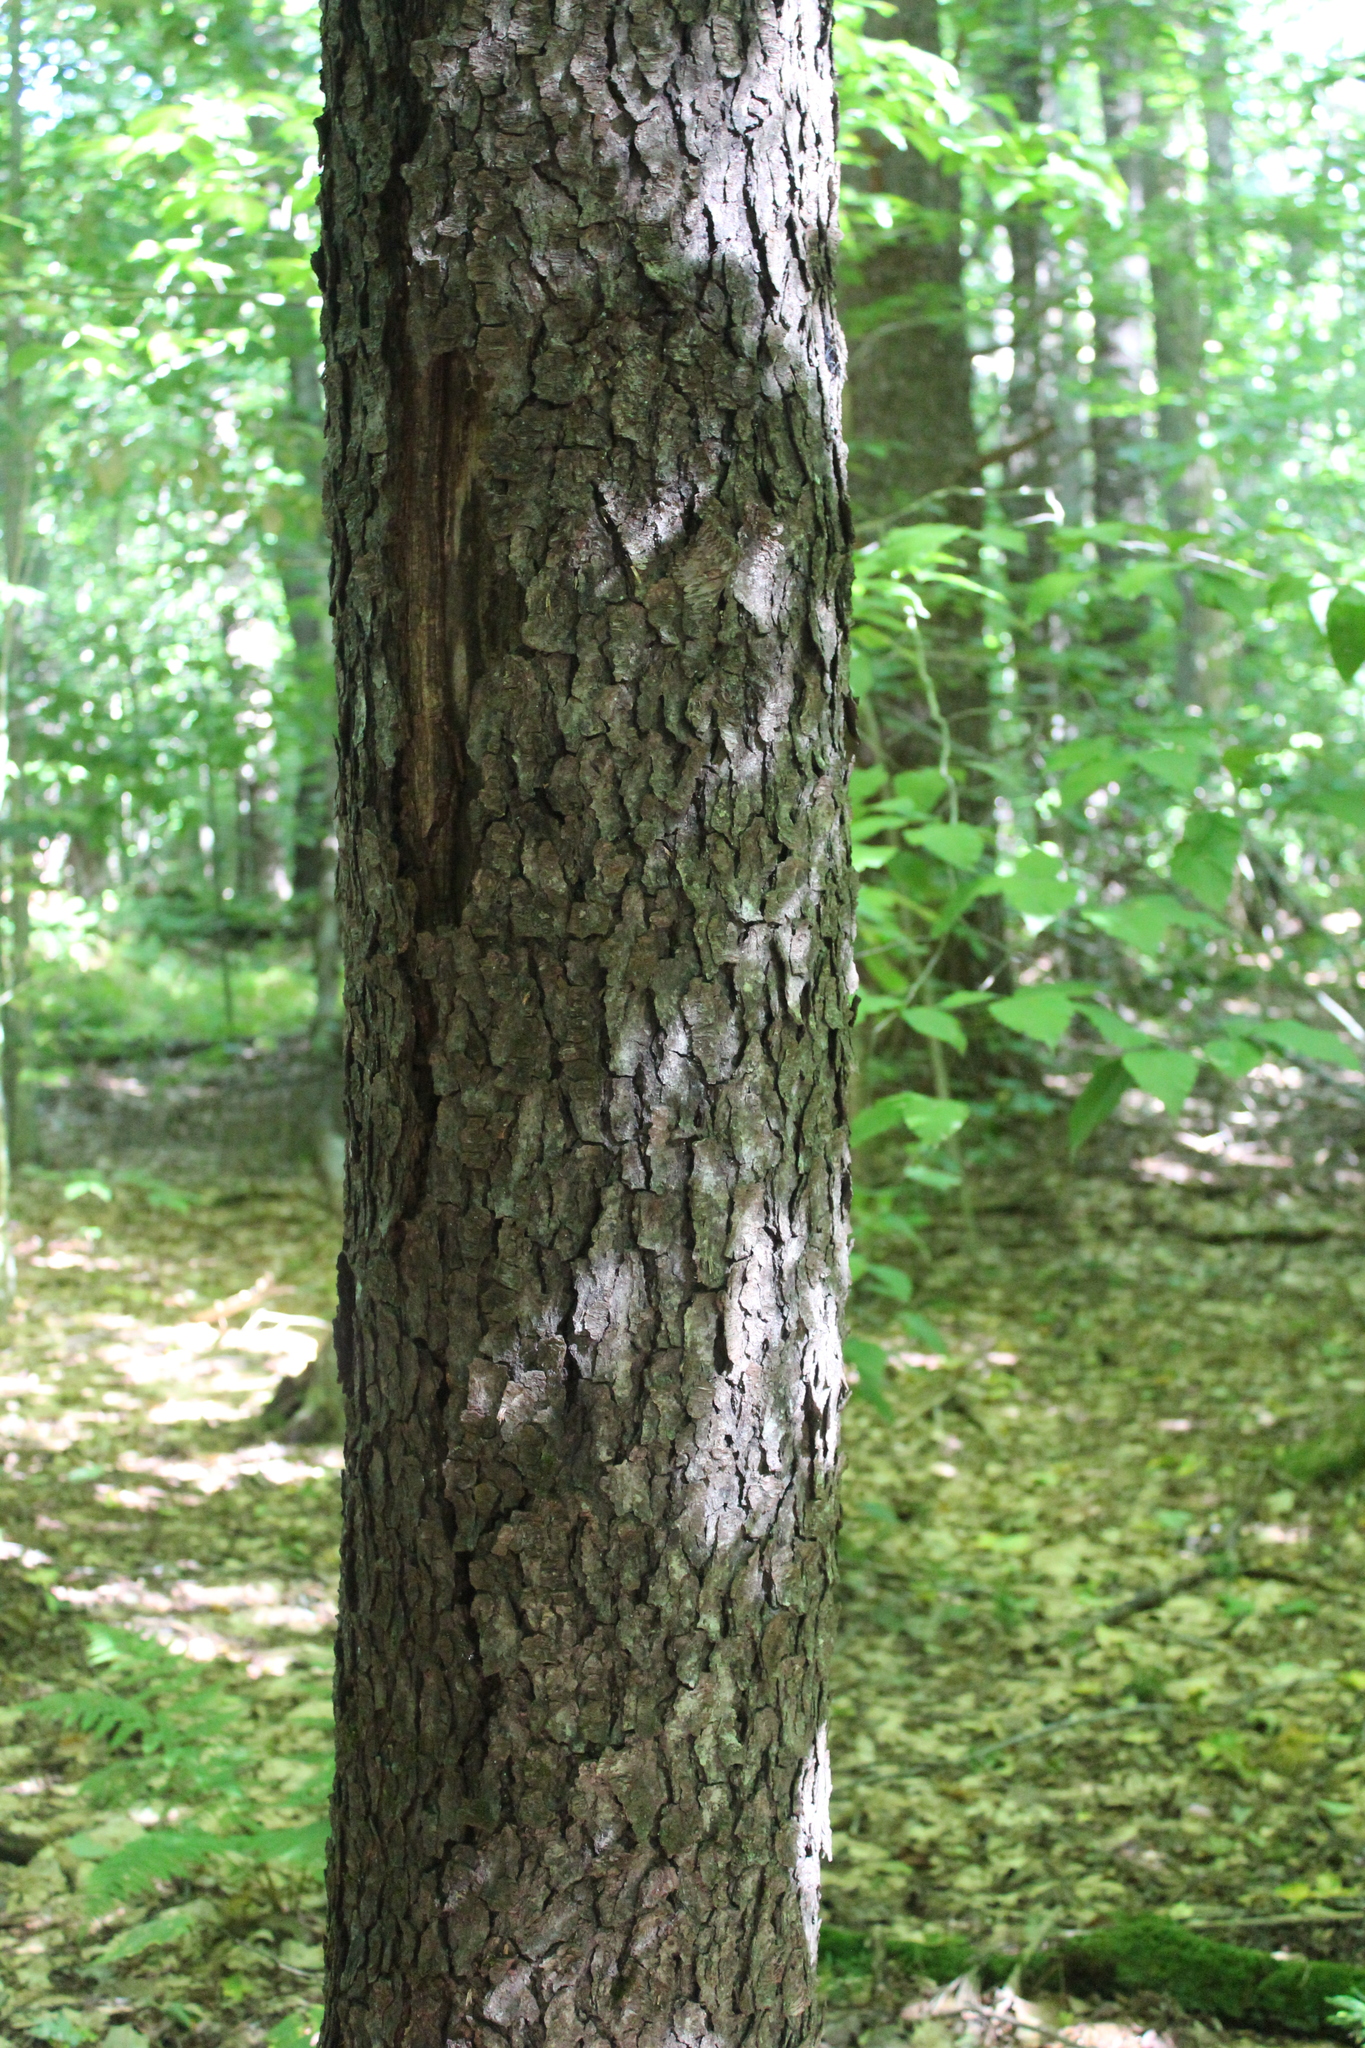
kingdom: Plantae
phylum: Tracheophyta
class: Magnoliopsida
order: Rosales
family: Rosaceae
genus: Prunus
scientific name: Prunus serotina
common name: Black cherry
